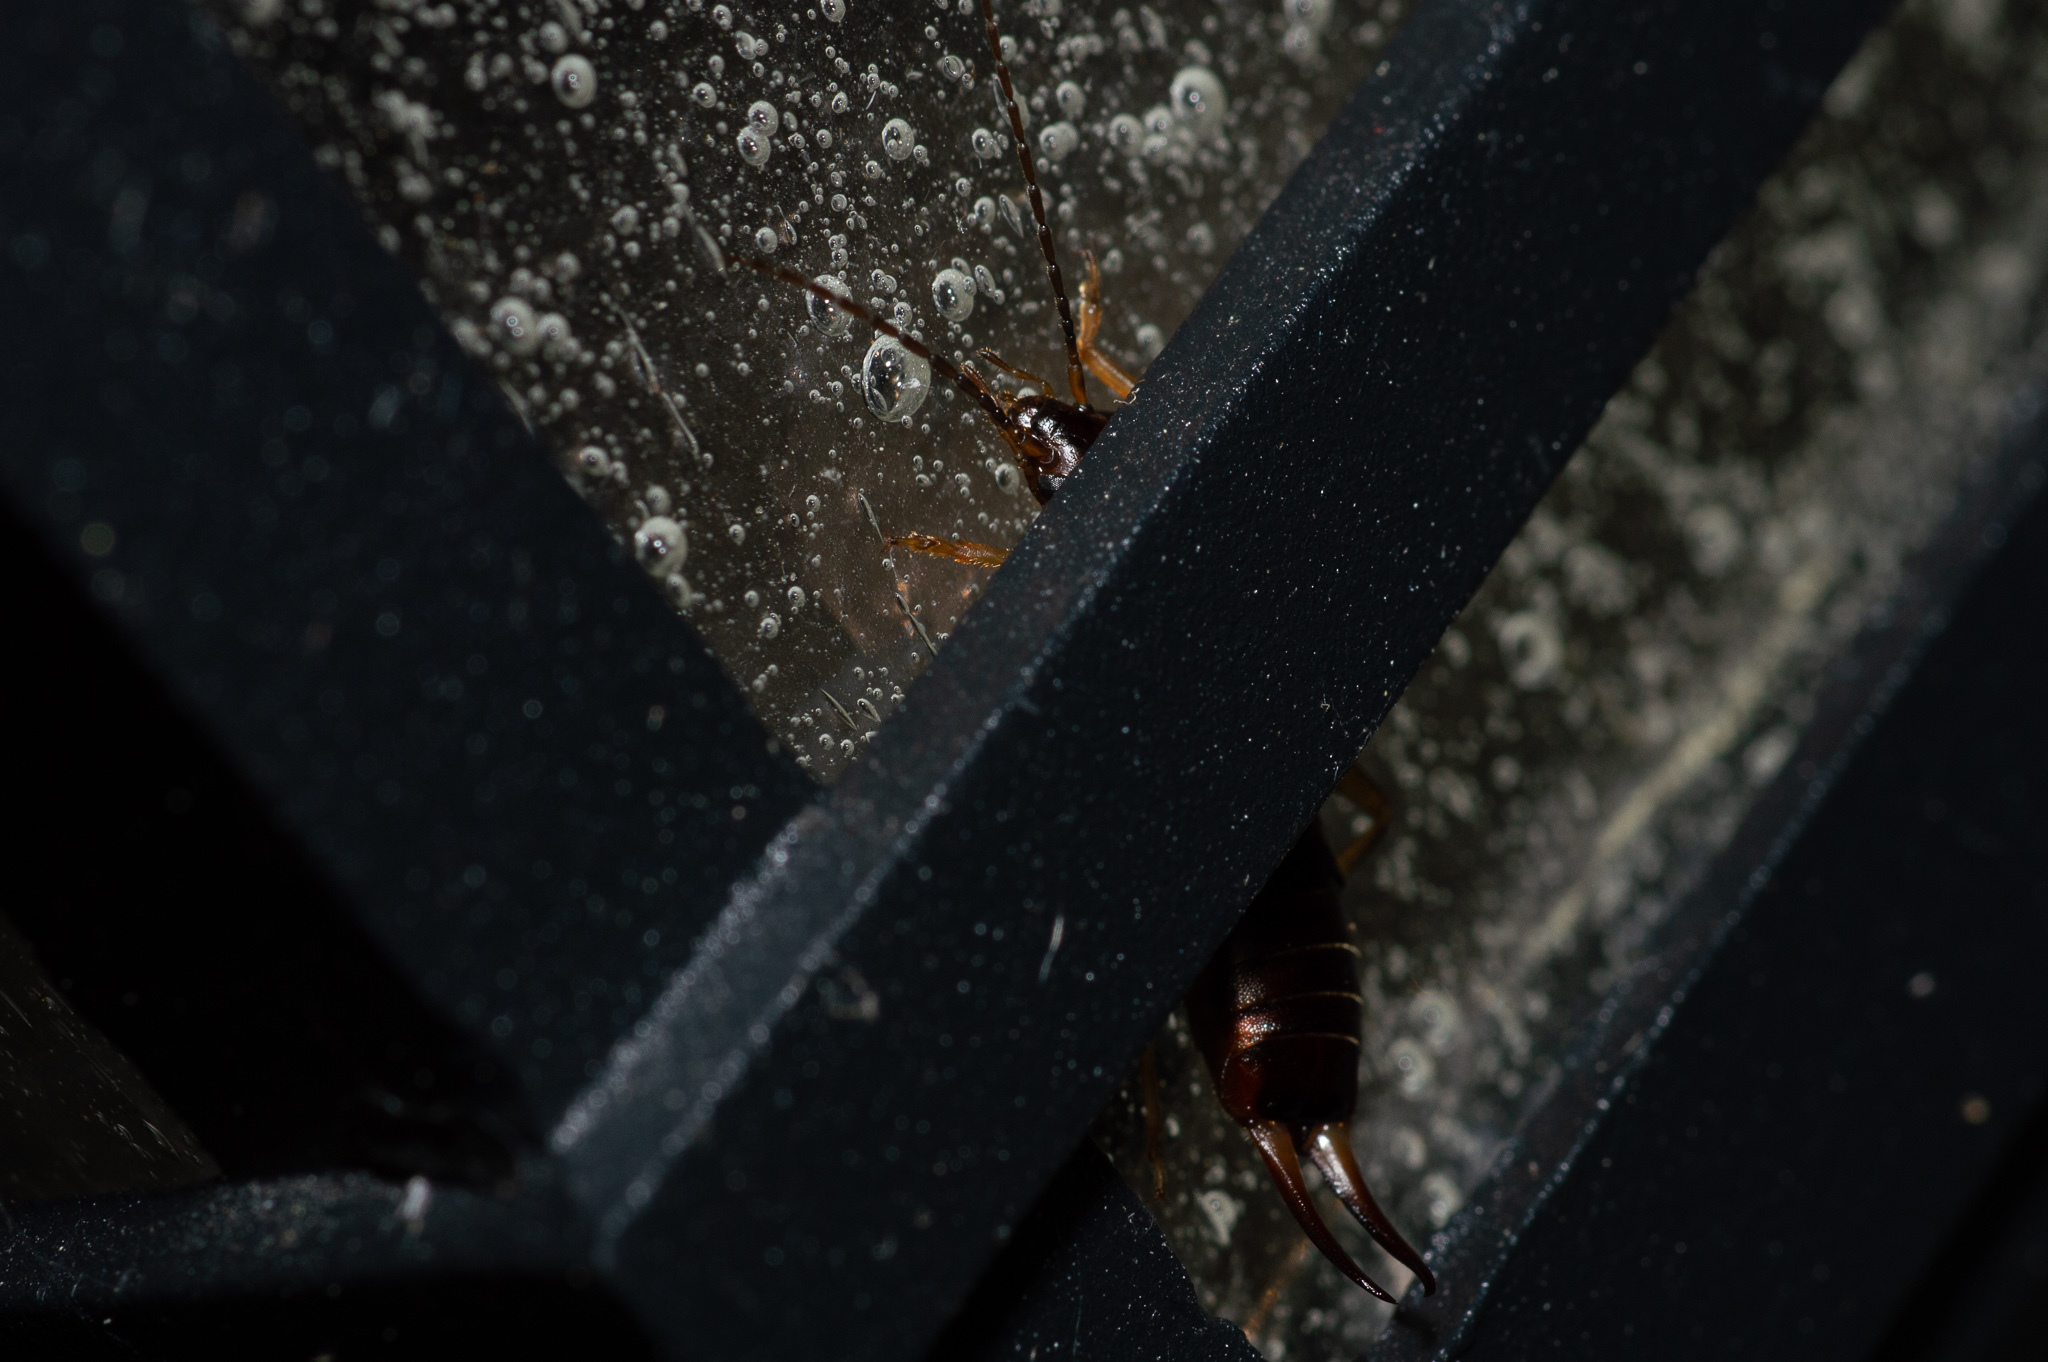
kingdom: Animalia
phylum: Arthropoda
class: Insecta
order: Dermaptera
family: Forficulidae
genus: Forficula
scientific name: Forficula
